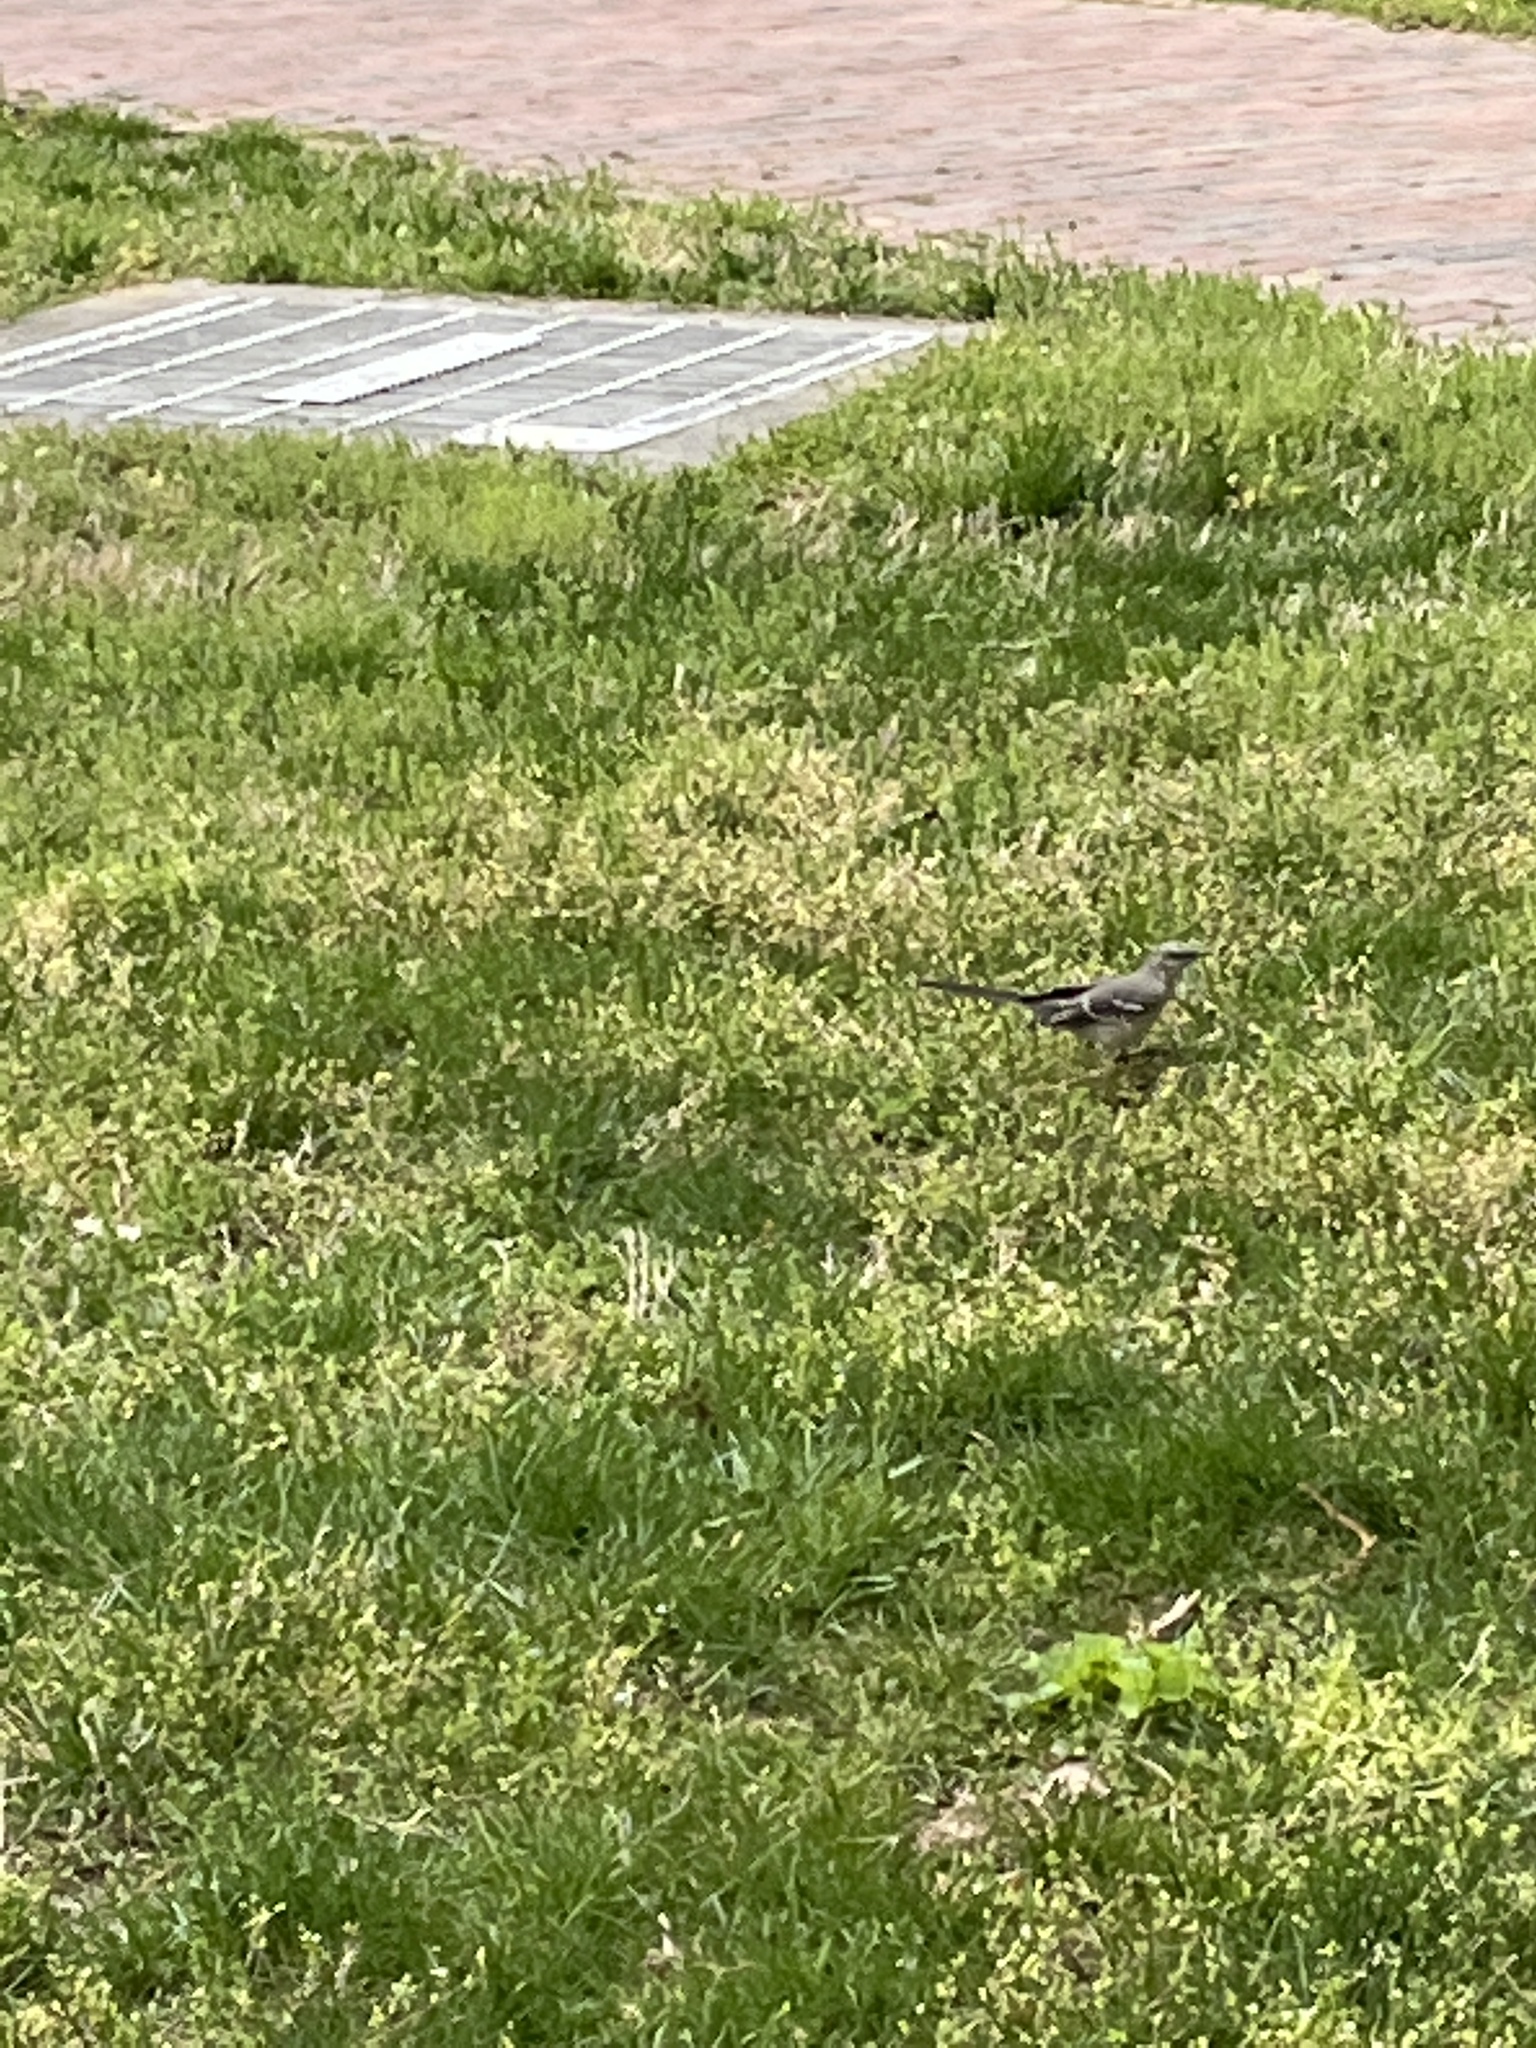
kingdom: Animalia
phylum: Chordata
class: Aves
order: Passeriformes
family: Mimidae
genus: Mimus
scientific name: Mimus polyglottos
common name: Northern mockingbird
